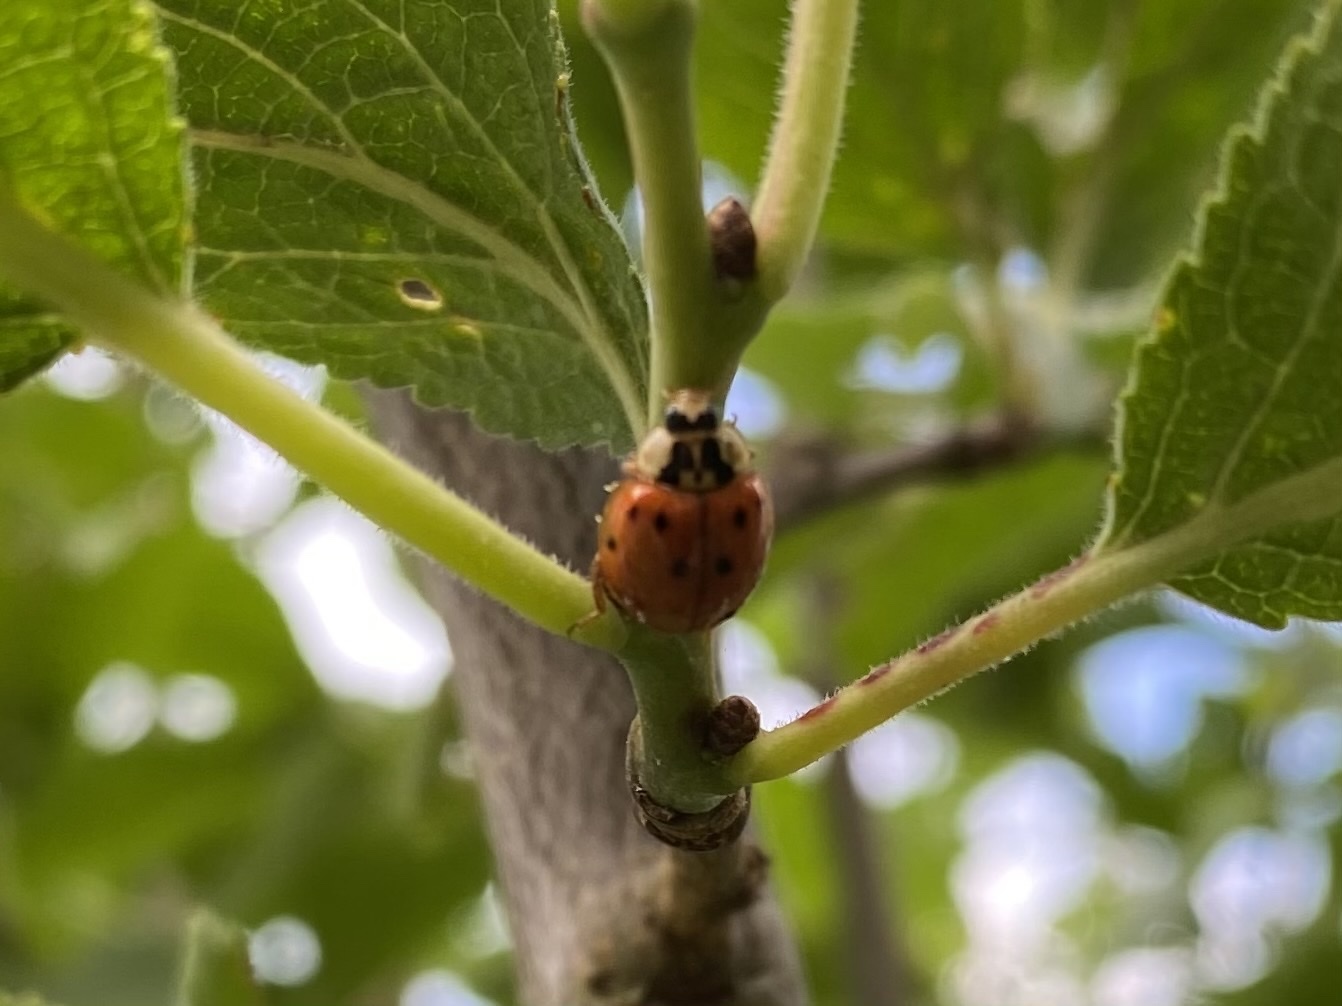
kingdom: Animalia
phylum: Arthropoda
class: Insecta
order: Coleoptera
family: Coccinellidae
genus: Harmonia
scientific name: Harmonia axyridis
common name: Harlequin ladybird
